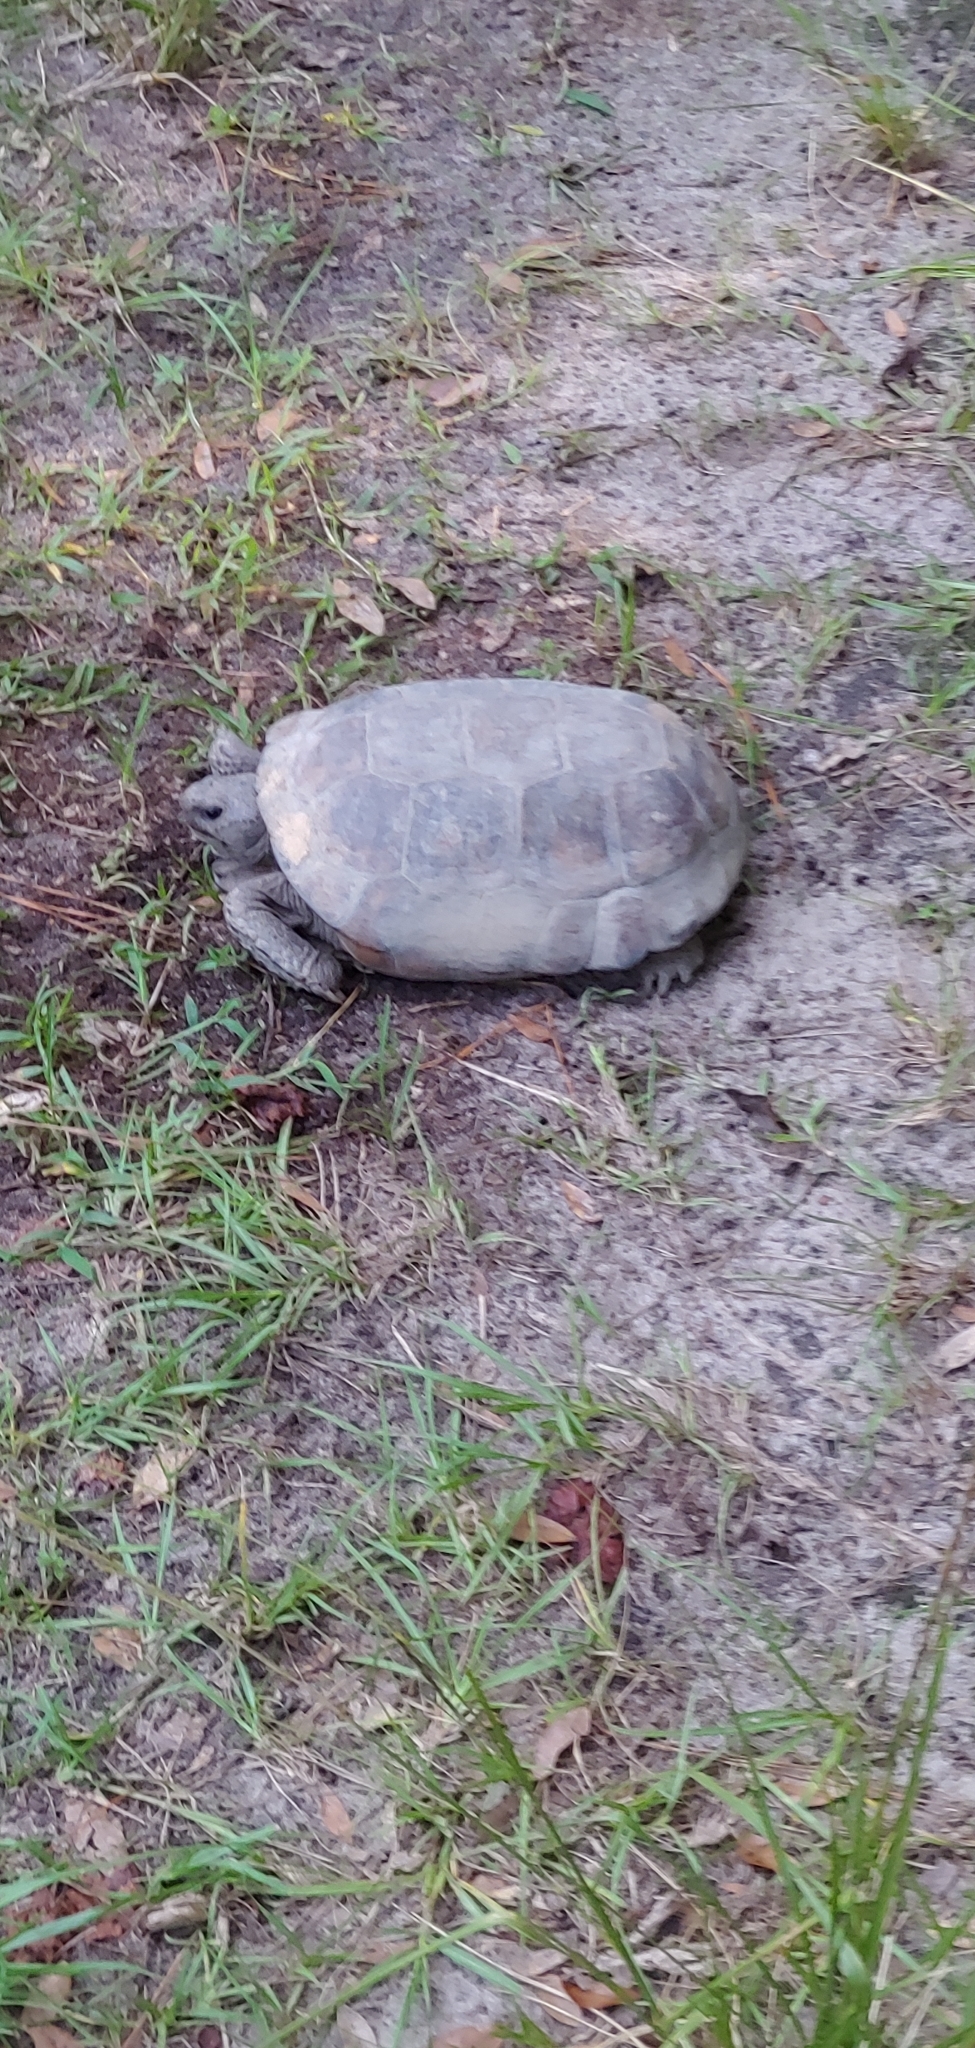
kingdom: Animalia
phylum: Chordata
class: Testudines
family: Testudinidae
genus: Gopherus
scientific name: Gopherus polyphemus
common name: Florida gopher tortoise
